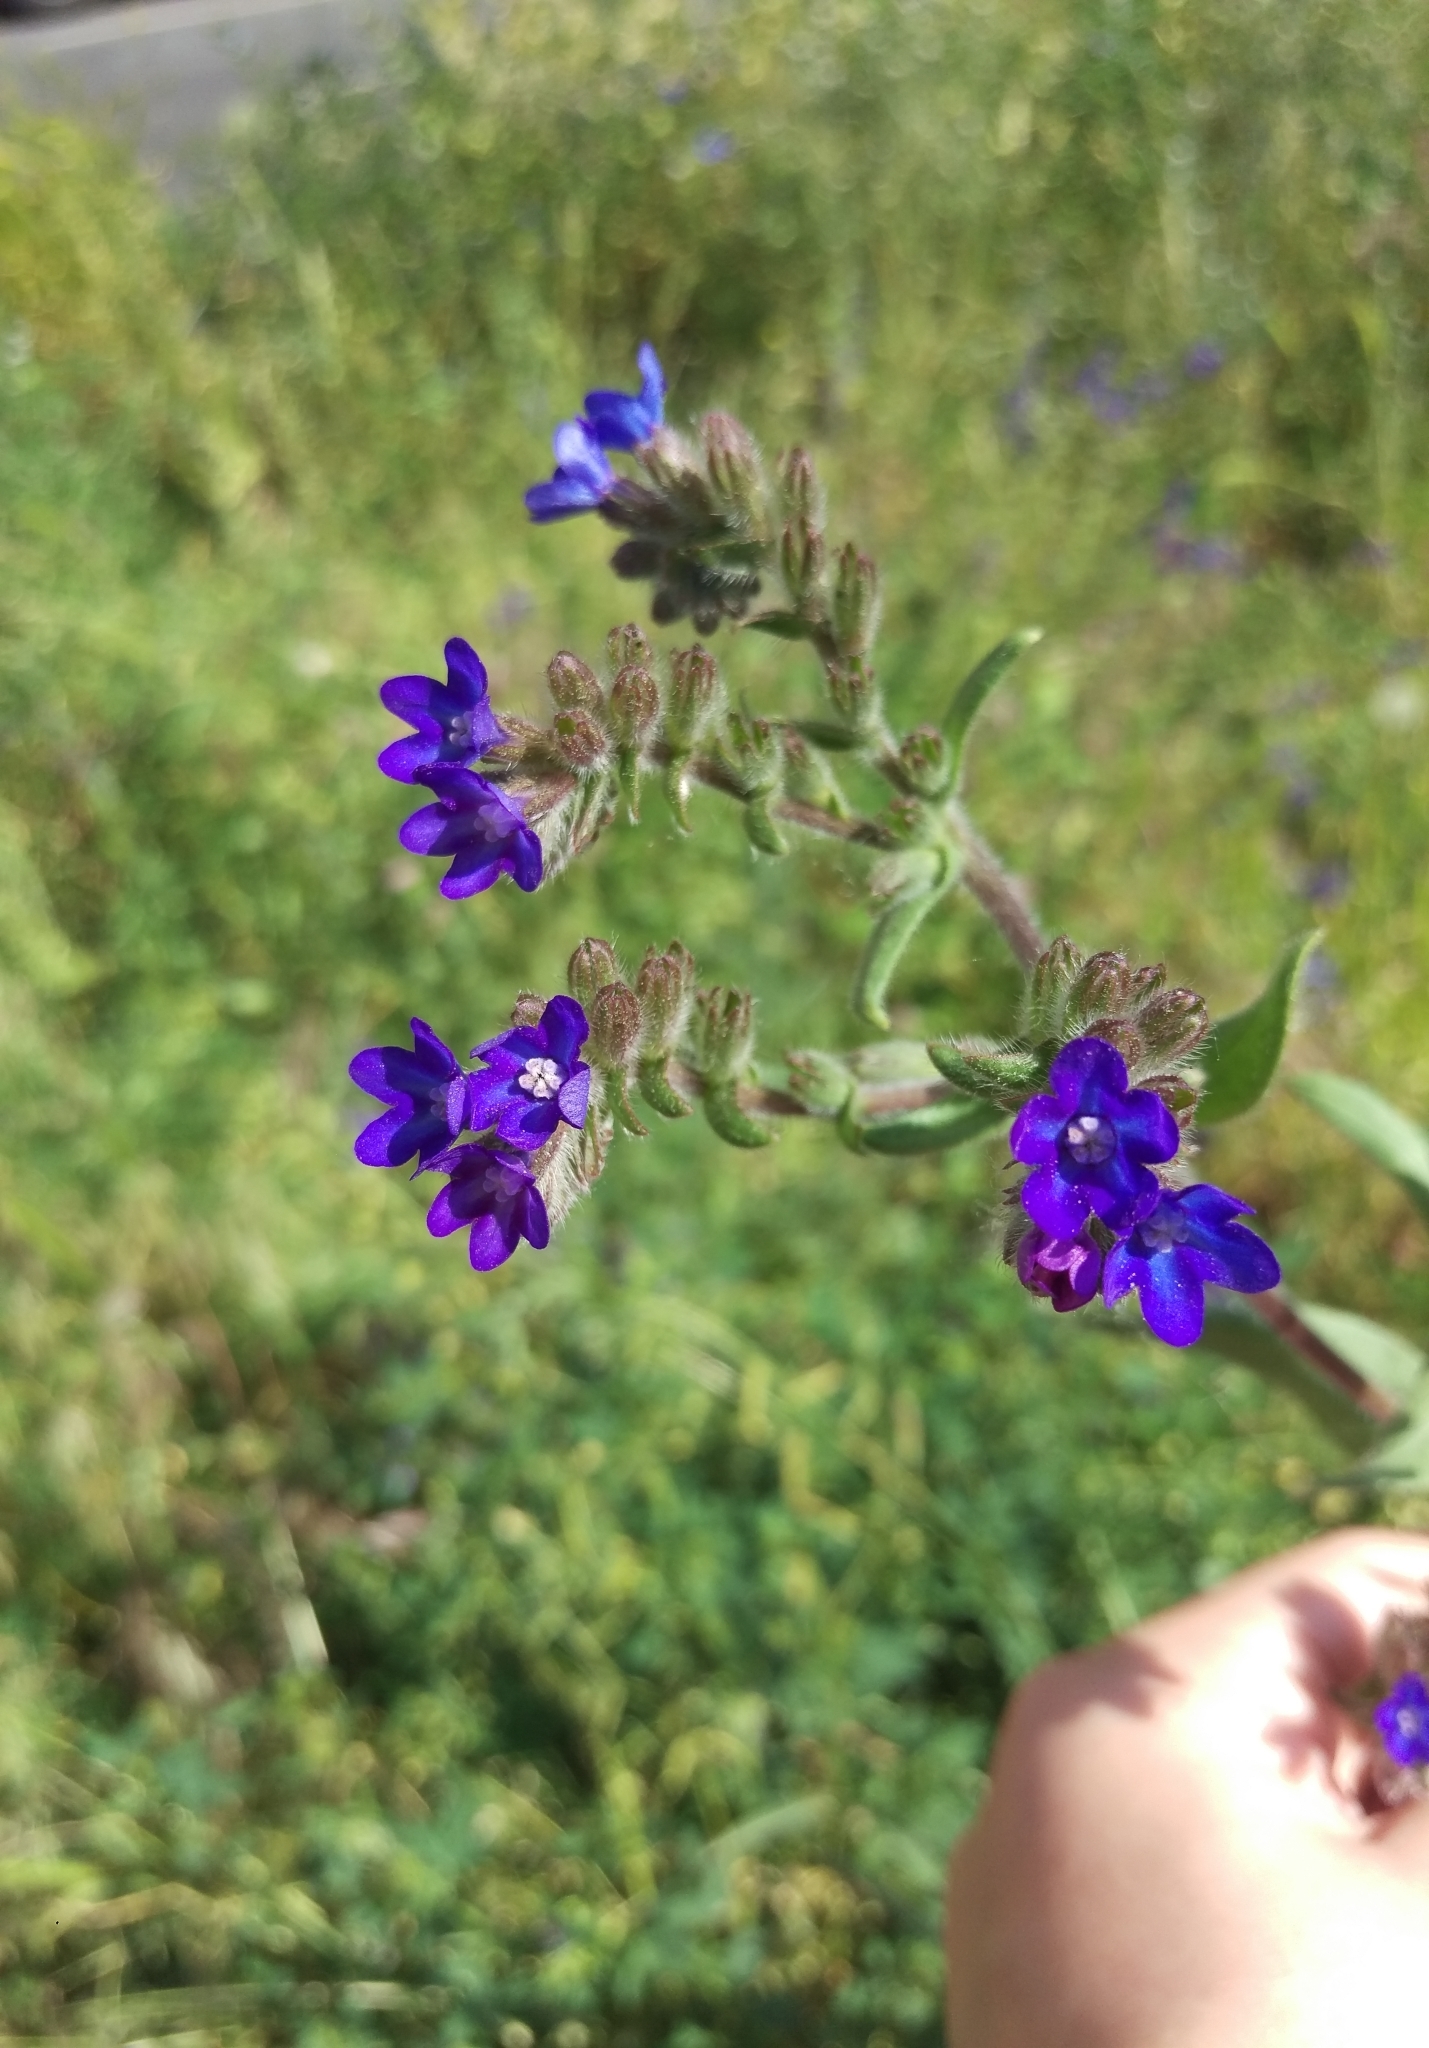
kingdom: Plantae
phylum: Tracheophyta
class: Magnoliopsida
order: Boraginales
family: Boraginaceae
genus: Anchusa
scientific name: Anchusa officinalis
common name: Alkanet
